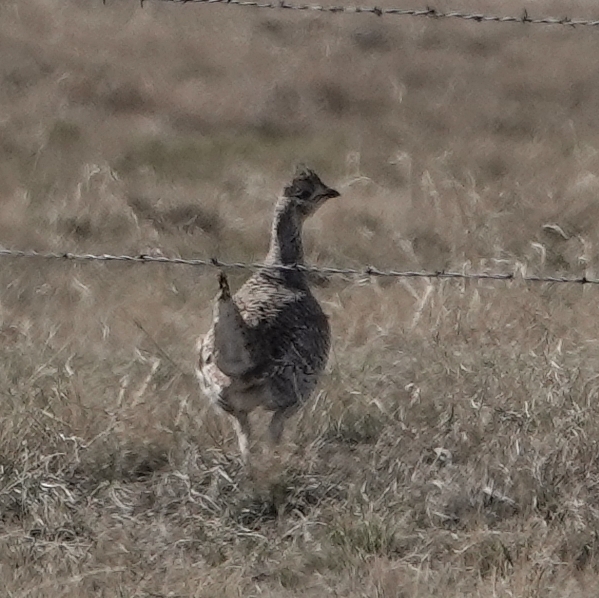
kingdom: Animalia
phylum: Chordata
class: Aves
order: Galliformes
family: Phasianidae
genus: Tympanuchus
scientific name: Tympanuchus phasianellus
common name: Sharp-tailed grouse
